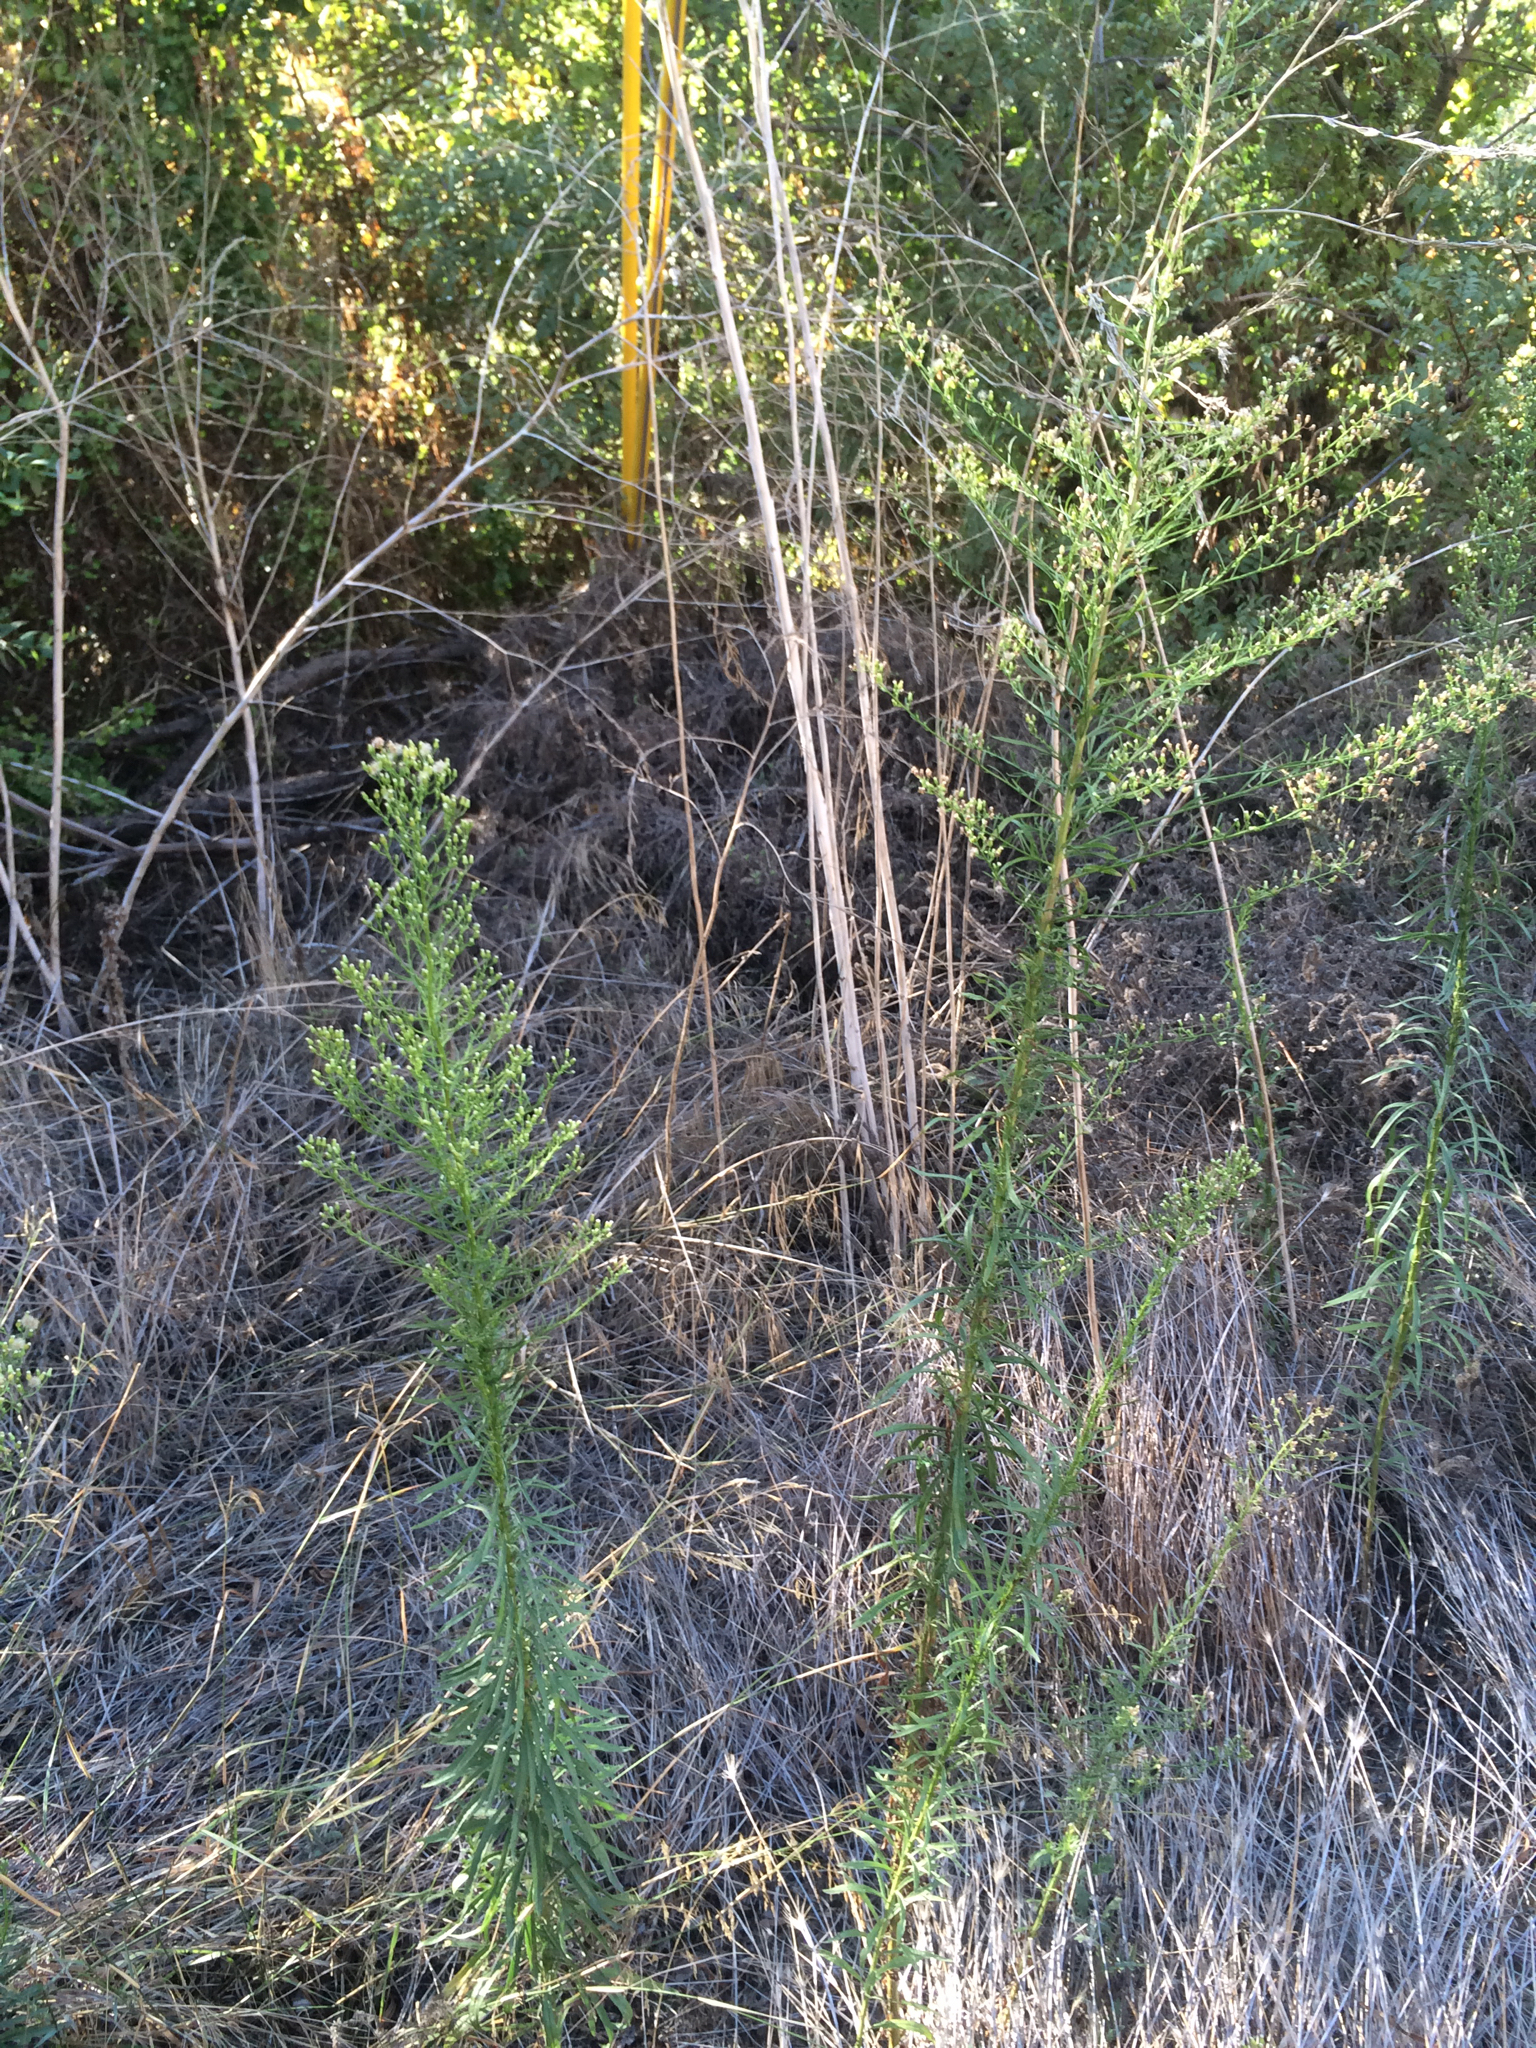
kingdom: Plantae
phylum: Tracheophyta
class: Magnoliopsida
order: Asterales
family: Asteraceae
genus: Erigeron
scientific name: Erigeron canadensis
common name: Canadian fleabane
